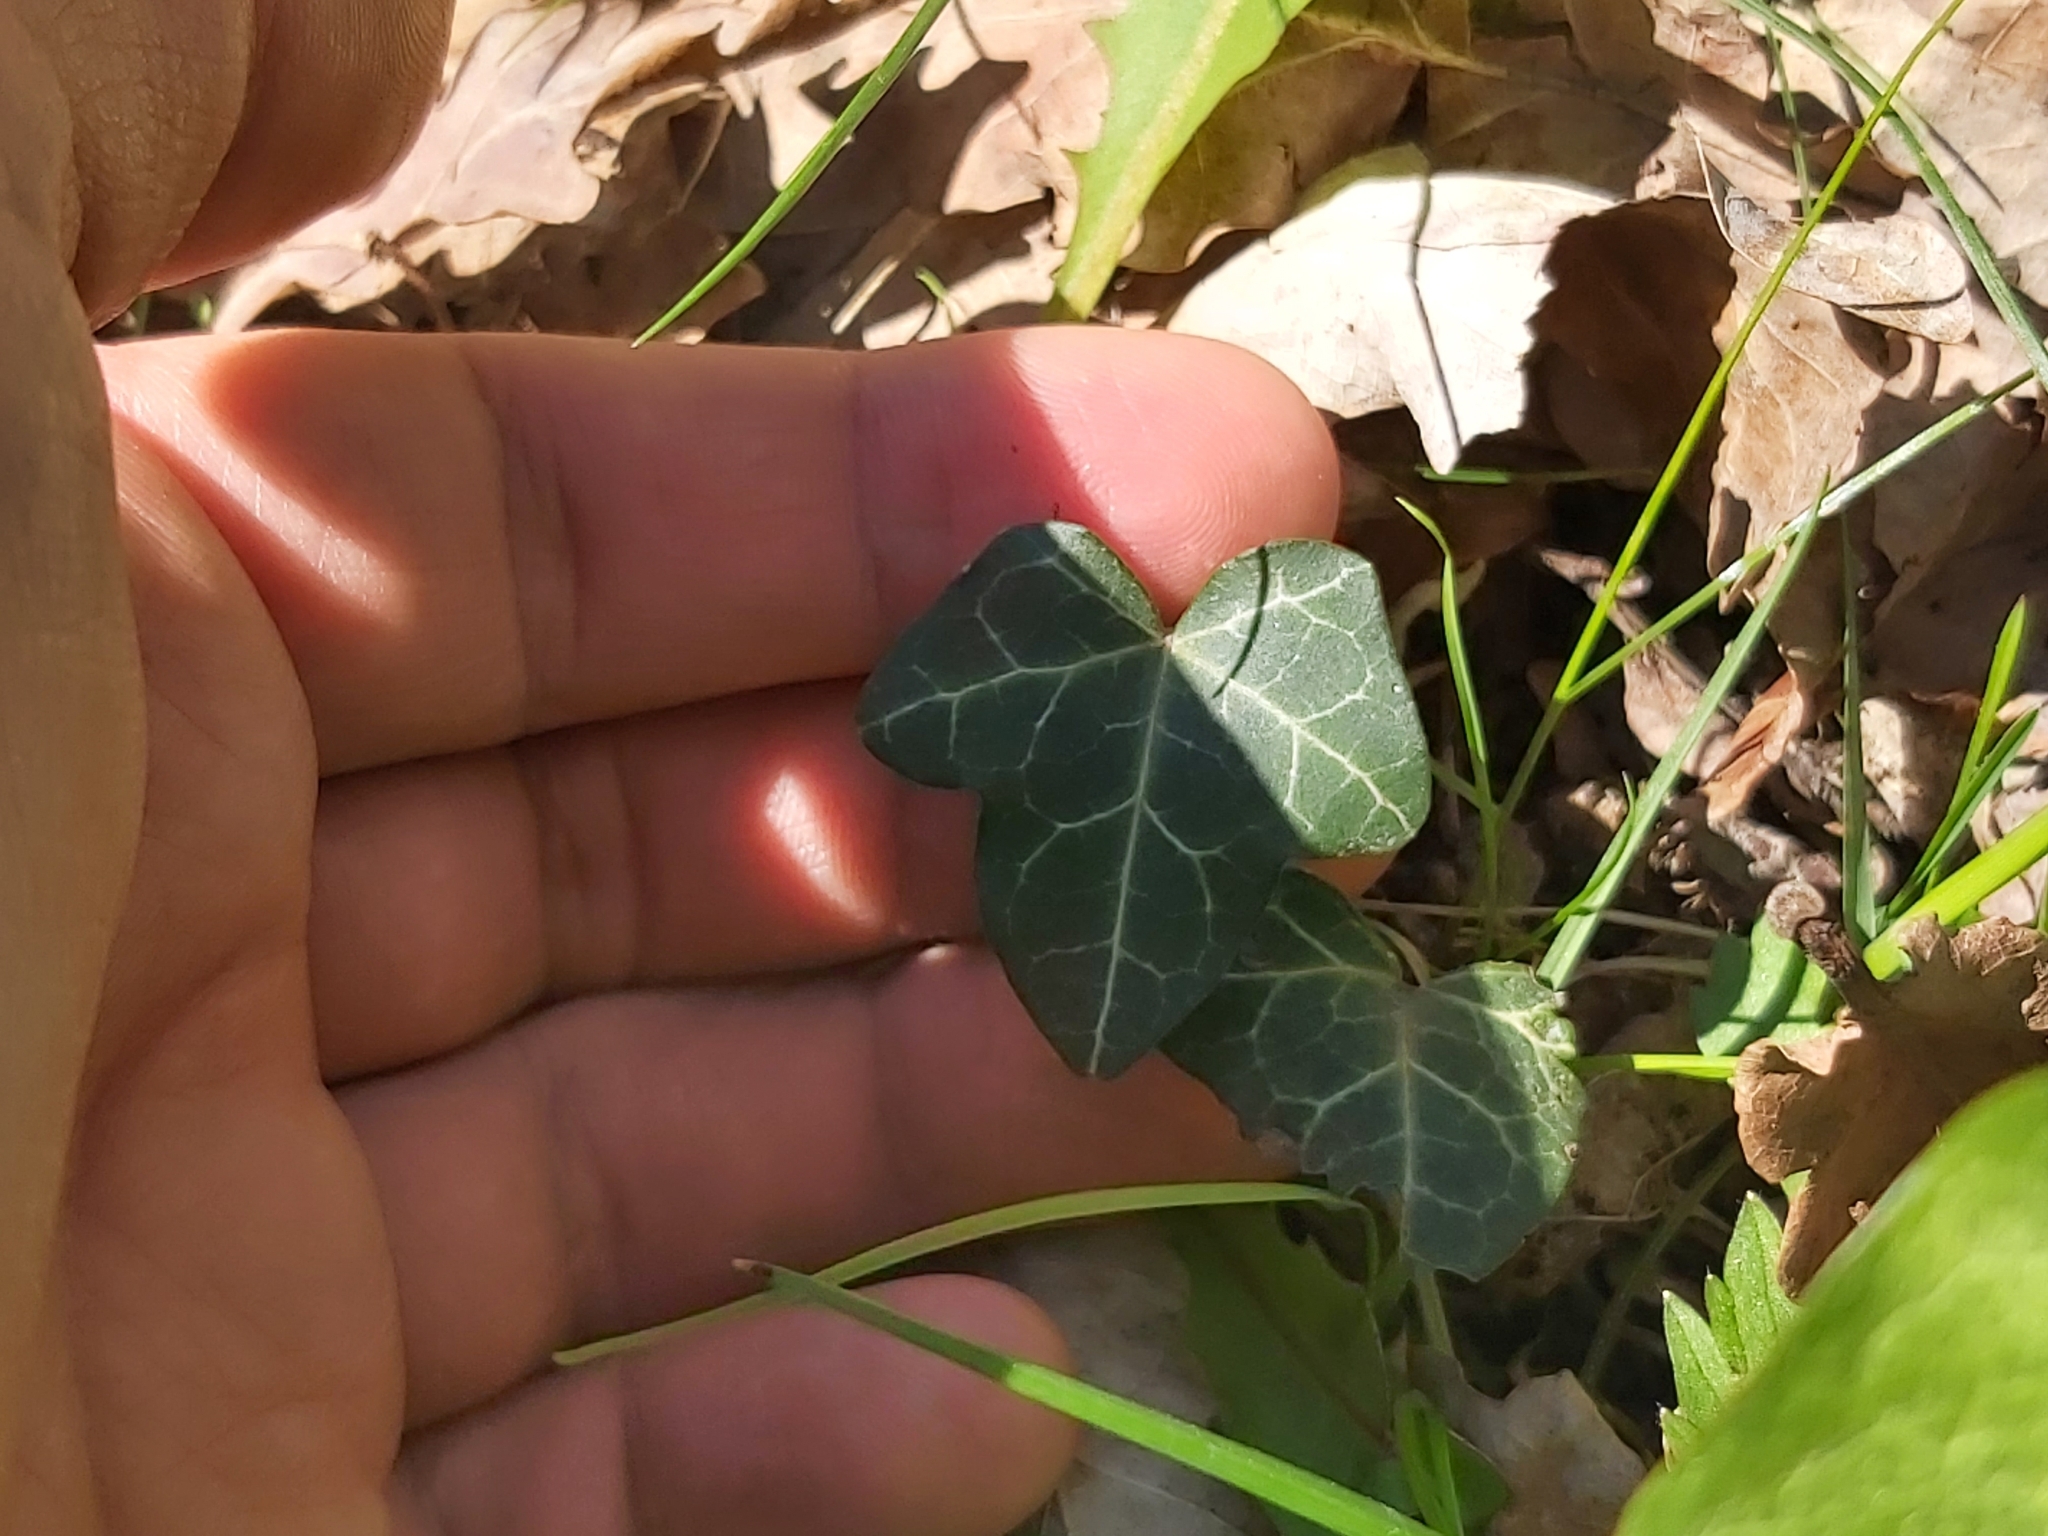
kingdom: Plantae
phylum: Tracheophyta
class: Magnoliopsida
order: Apiales
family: Araliaceae
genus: Hedera
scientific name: Hedera helix
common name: Ivy
